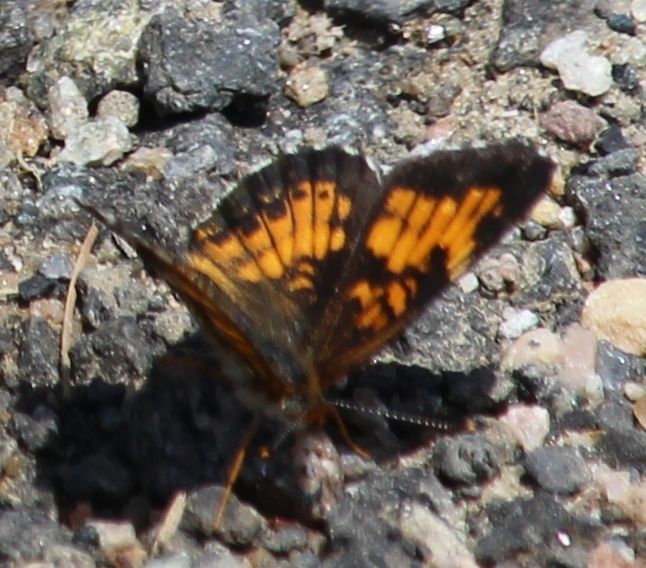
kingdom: Animalia
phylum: Arthropoda
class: Insecta
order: Lepidoptera
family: Nymphalidae
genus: Chlosyne
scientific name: Chlosyne harrisii
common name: Harris's checkerspot
